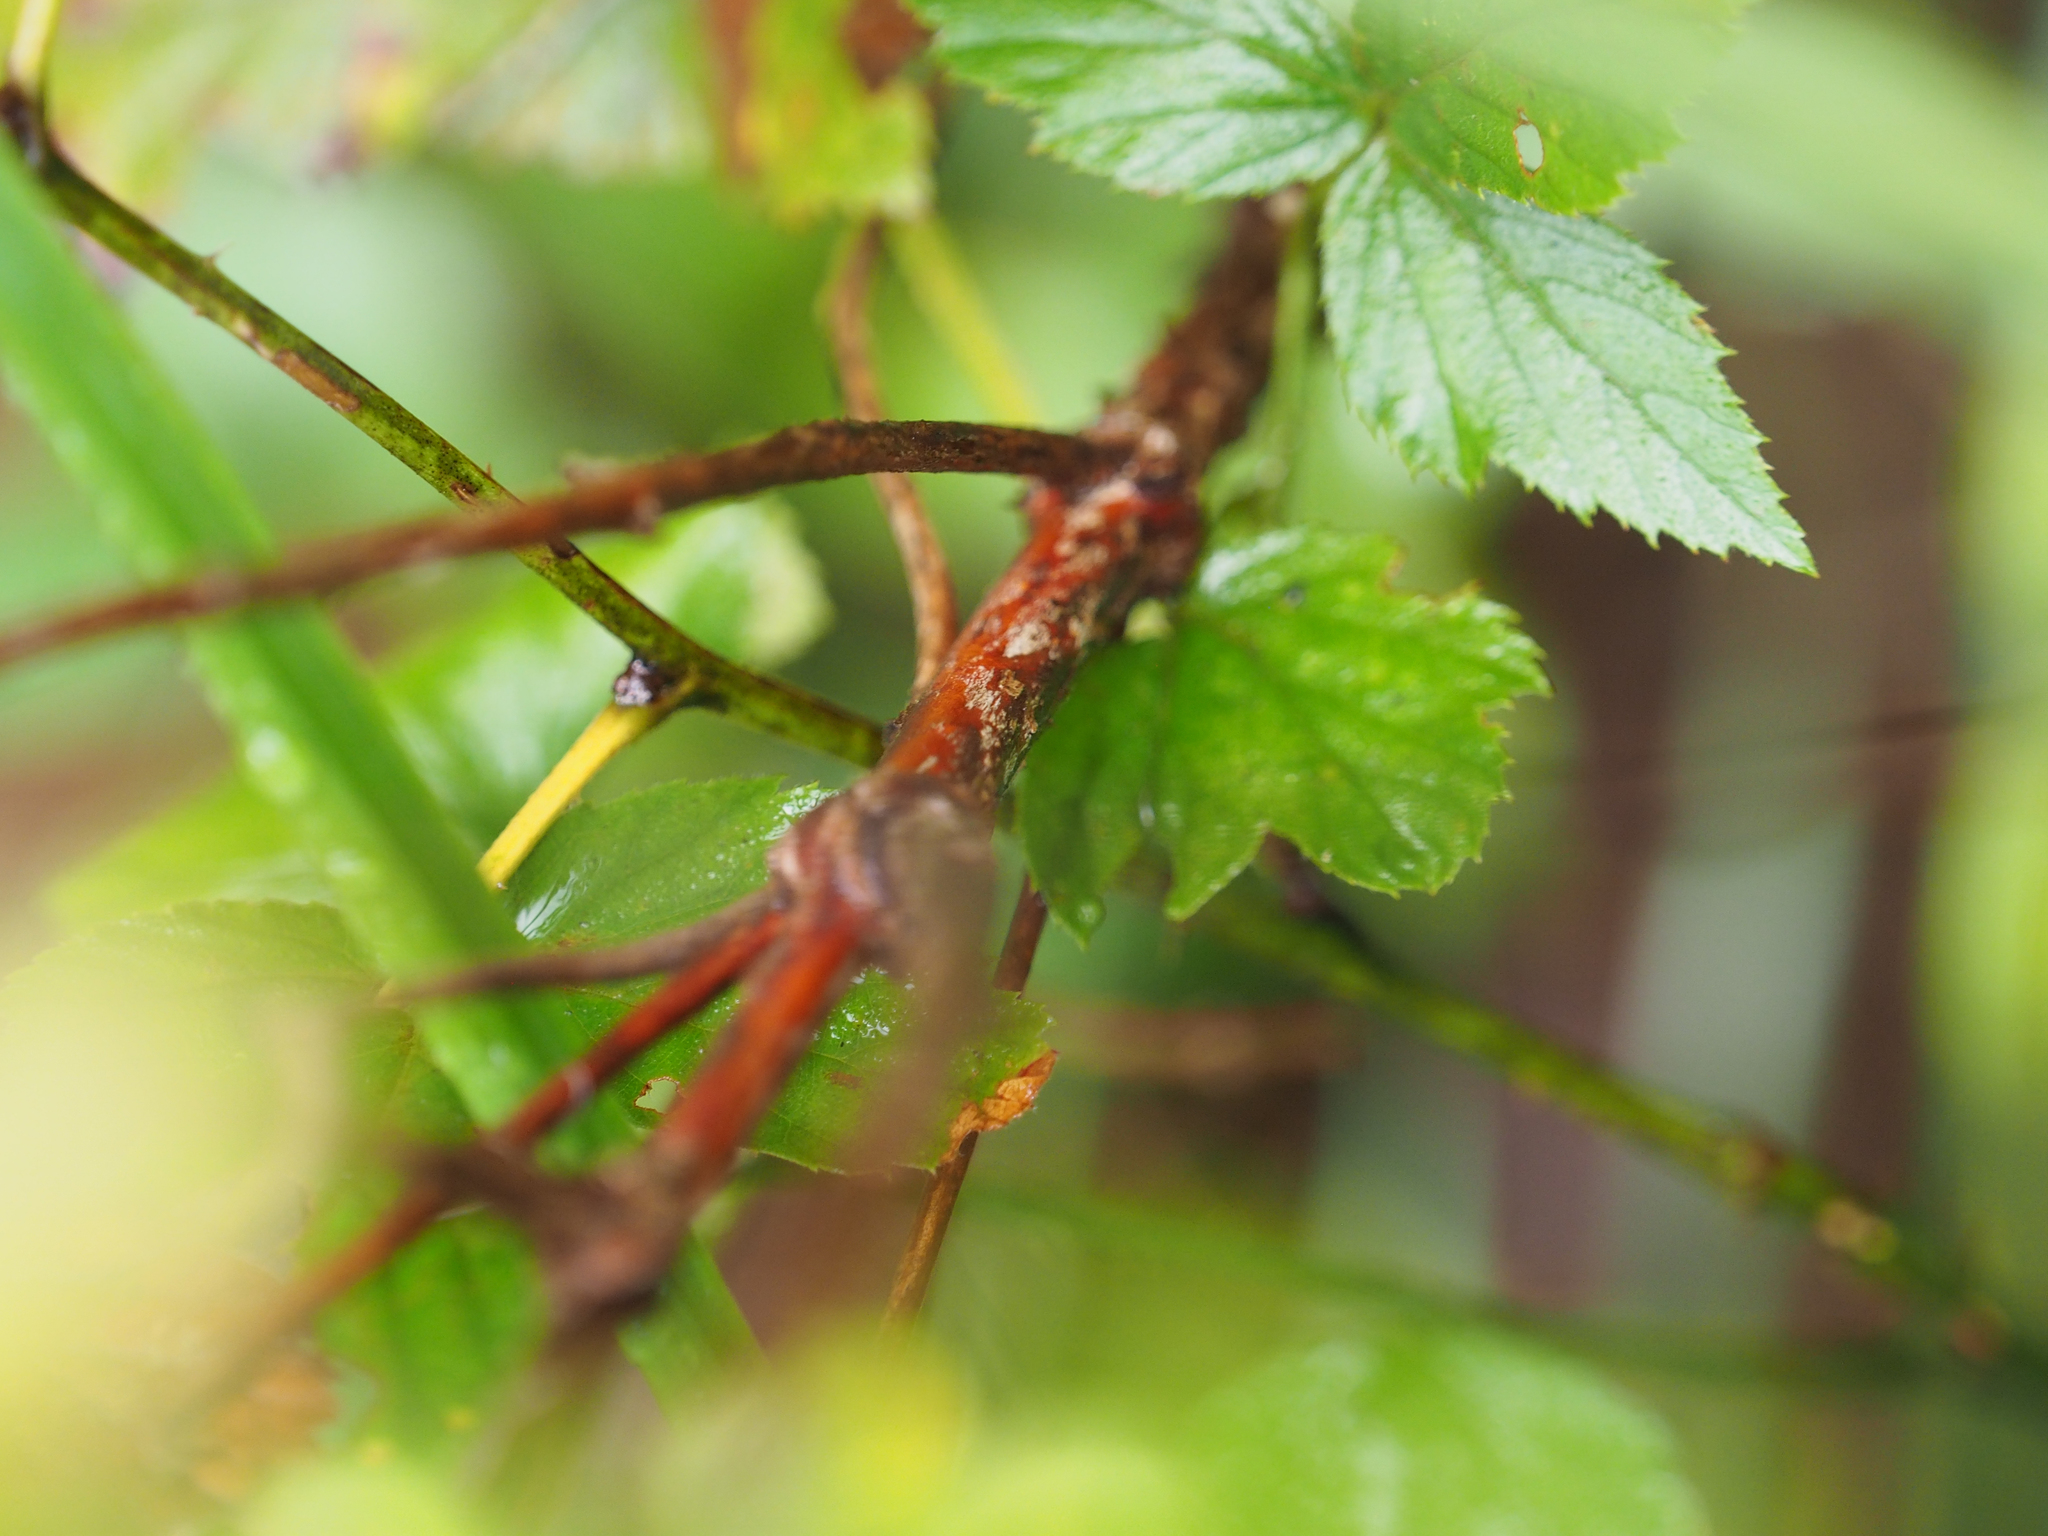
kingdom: Plantae
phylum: Tracheophyta
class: Magnoliopsida
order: Dipsacales
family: Caprifoliaceae
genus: Symphoricarpos
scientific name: Symphoricarpos orbiculatus
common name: Coralberry
